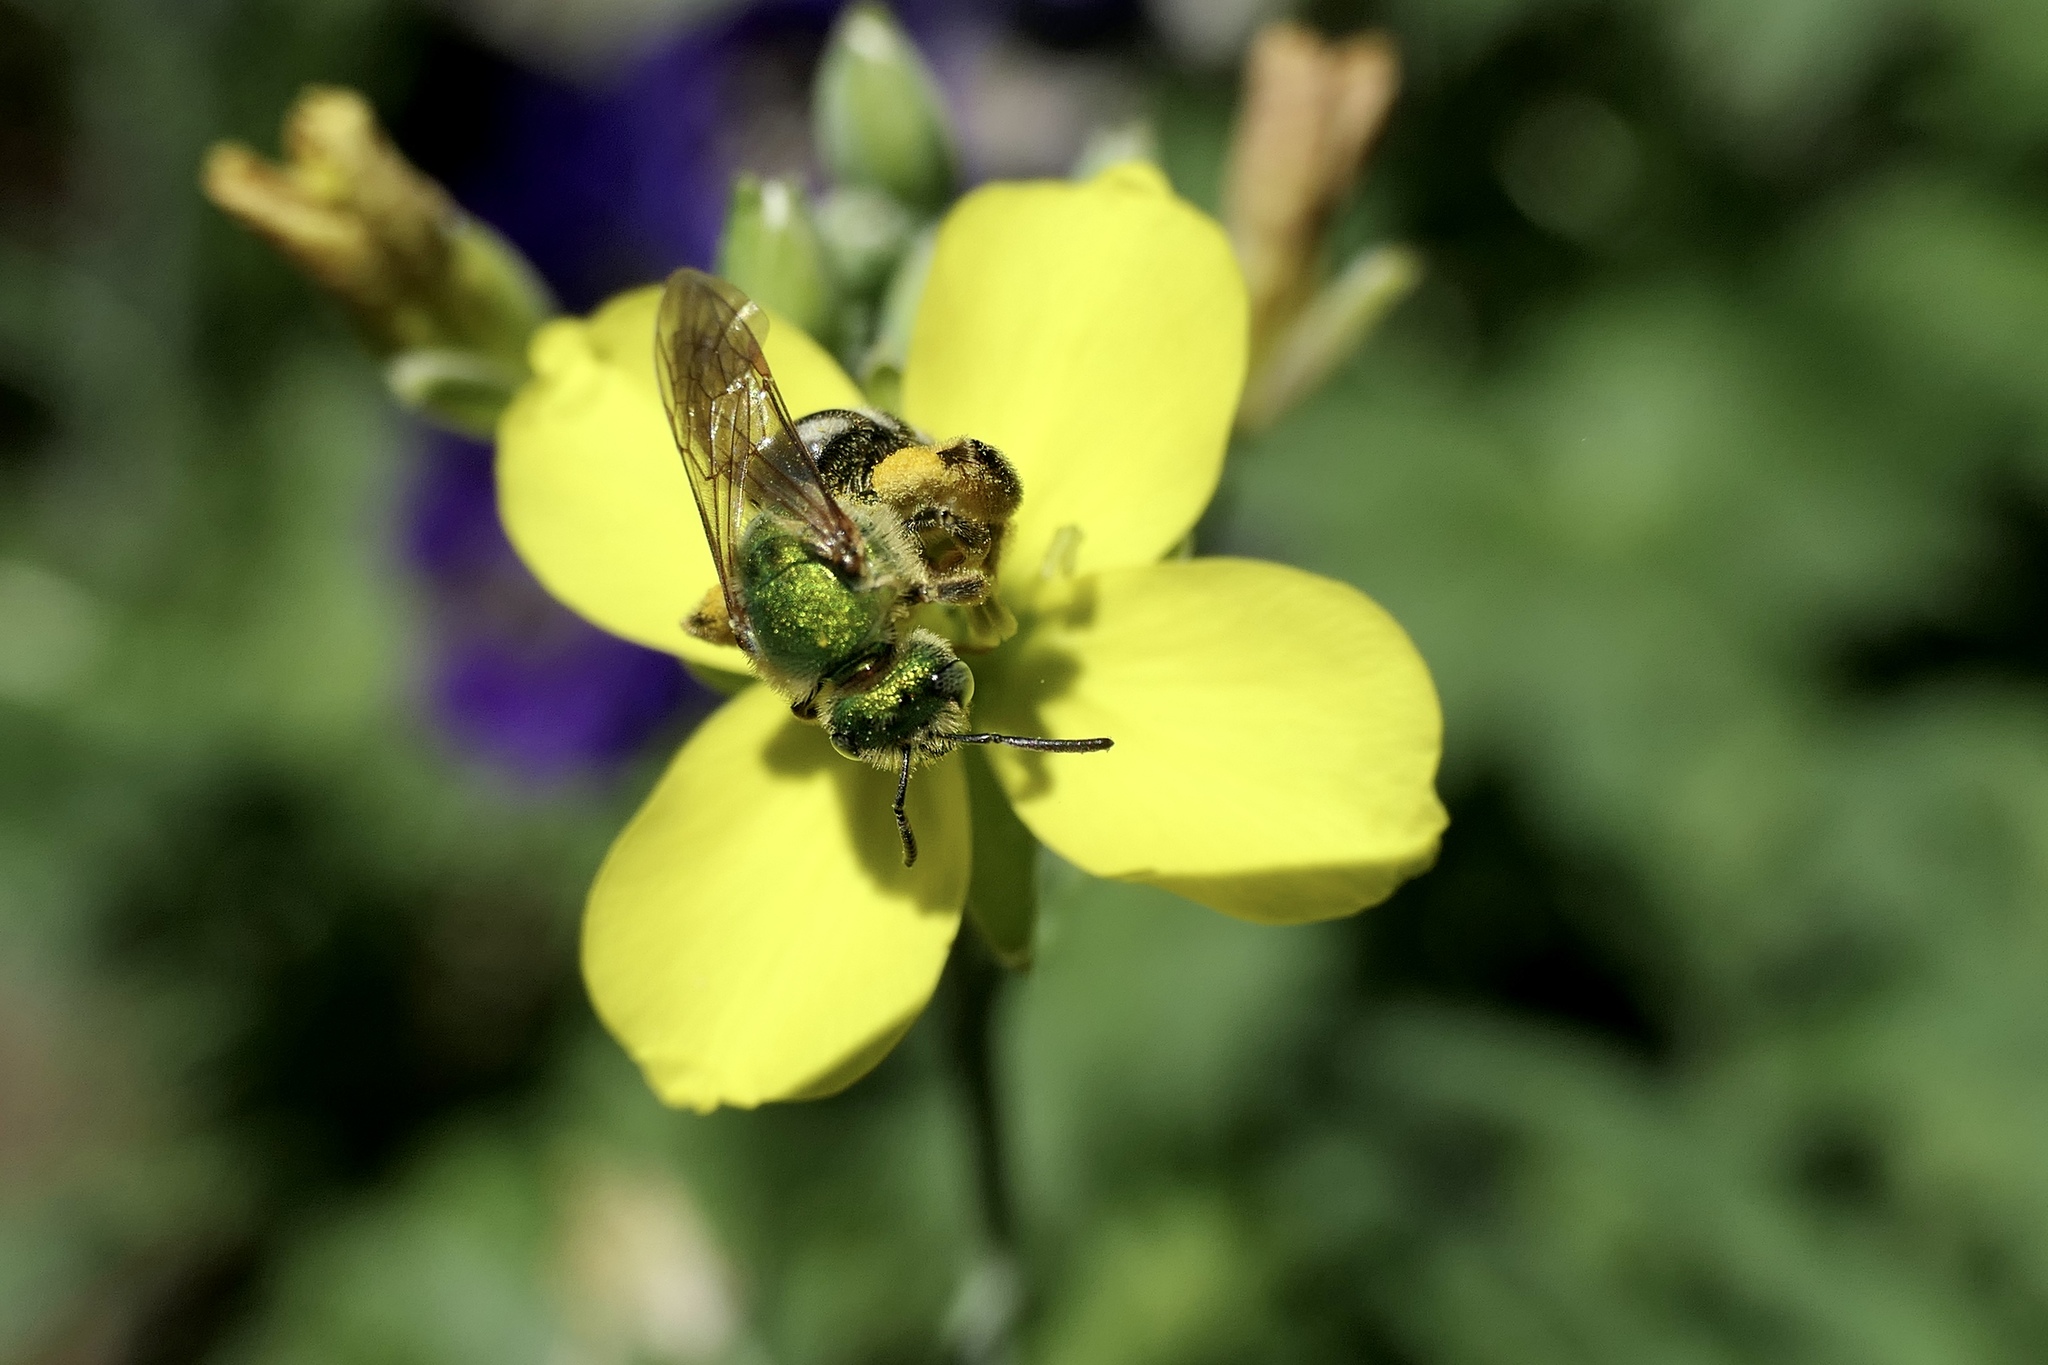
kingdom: Animalia
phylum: Arthropoda
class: Insecta
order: Hymenoptera
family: Halictidae
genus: Agapostemon
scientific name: Agapostemon virescens
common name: Bicolored striped sweat bee
